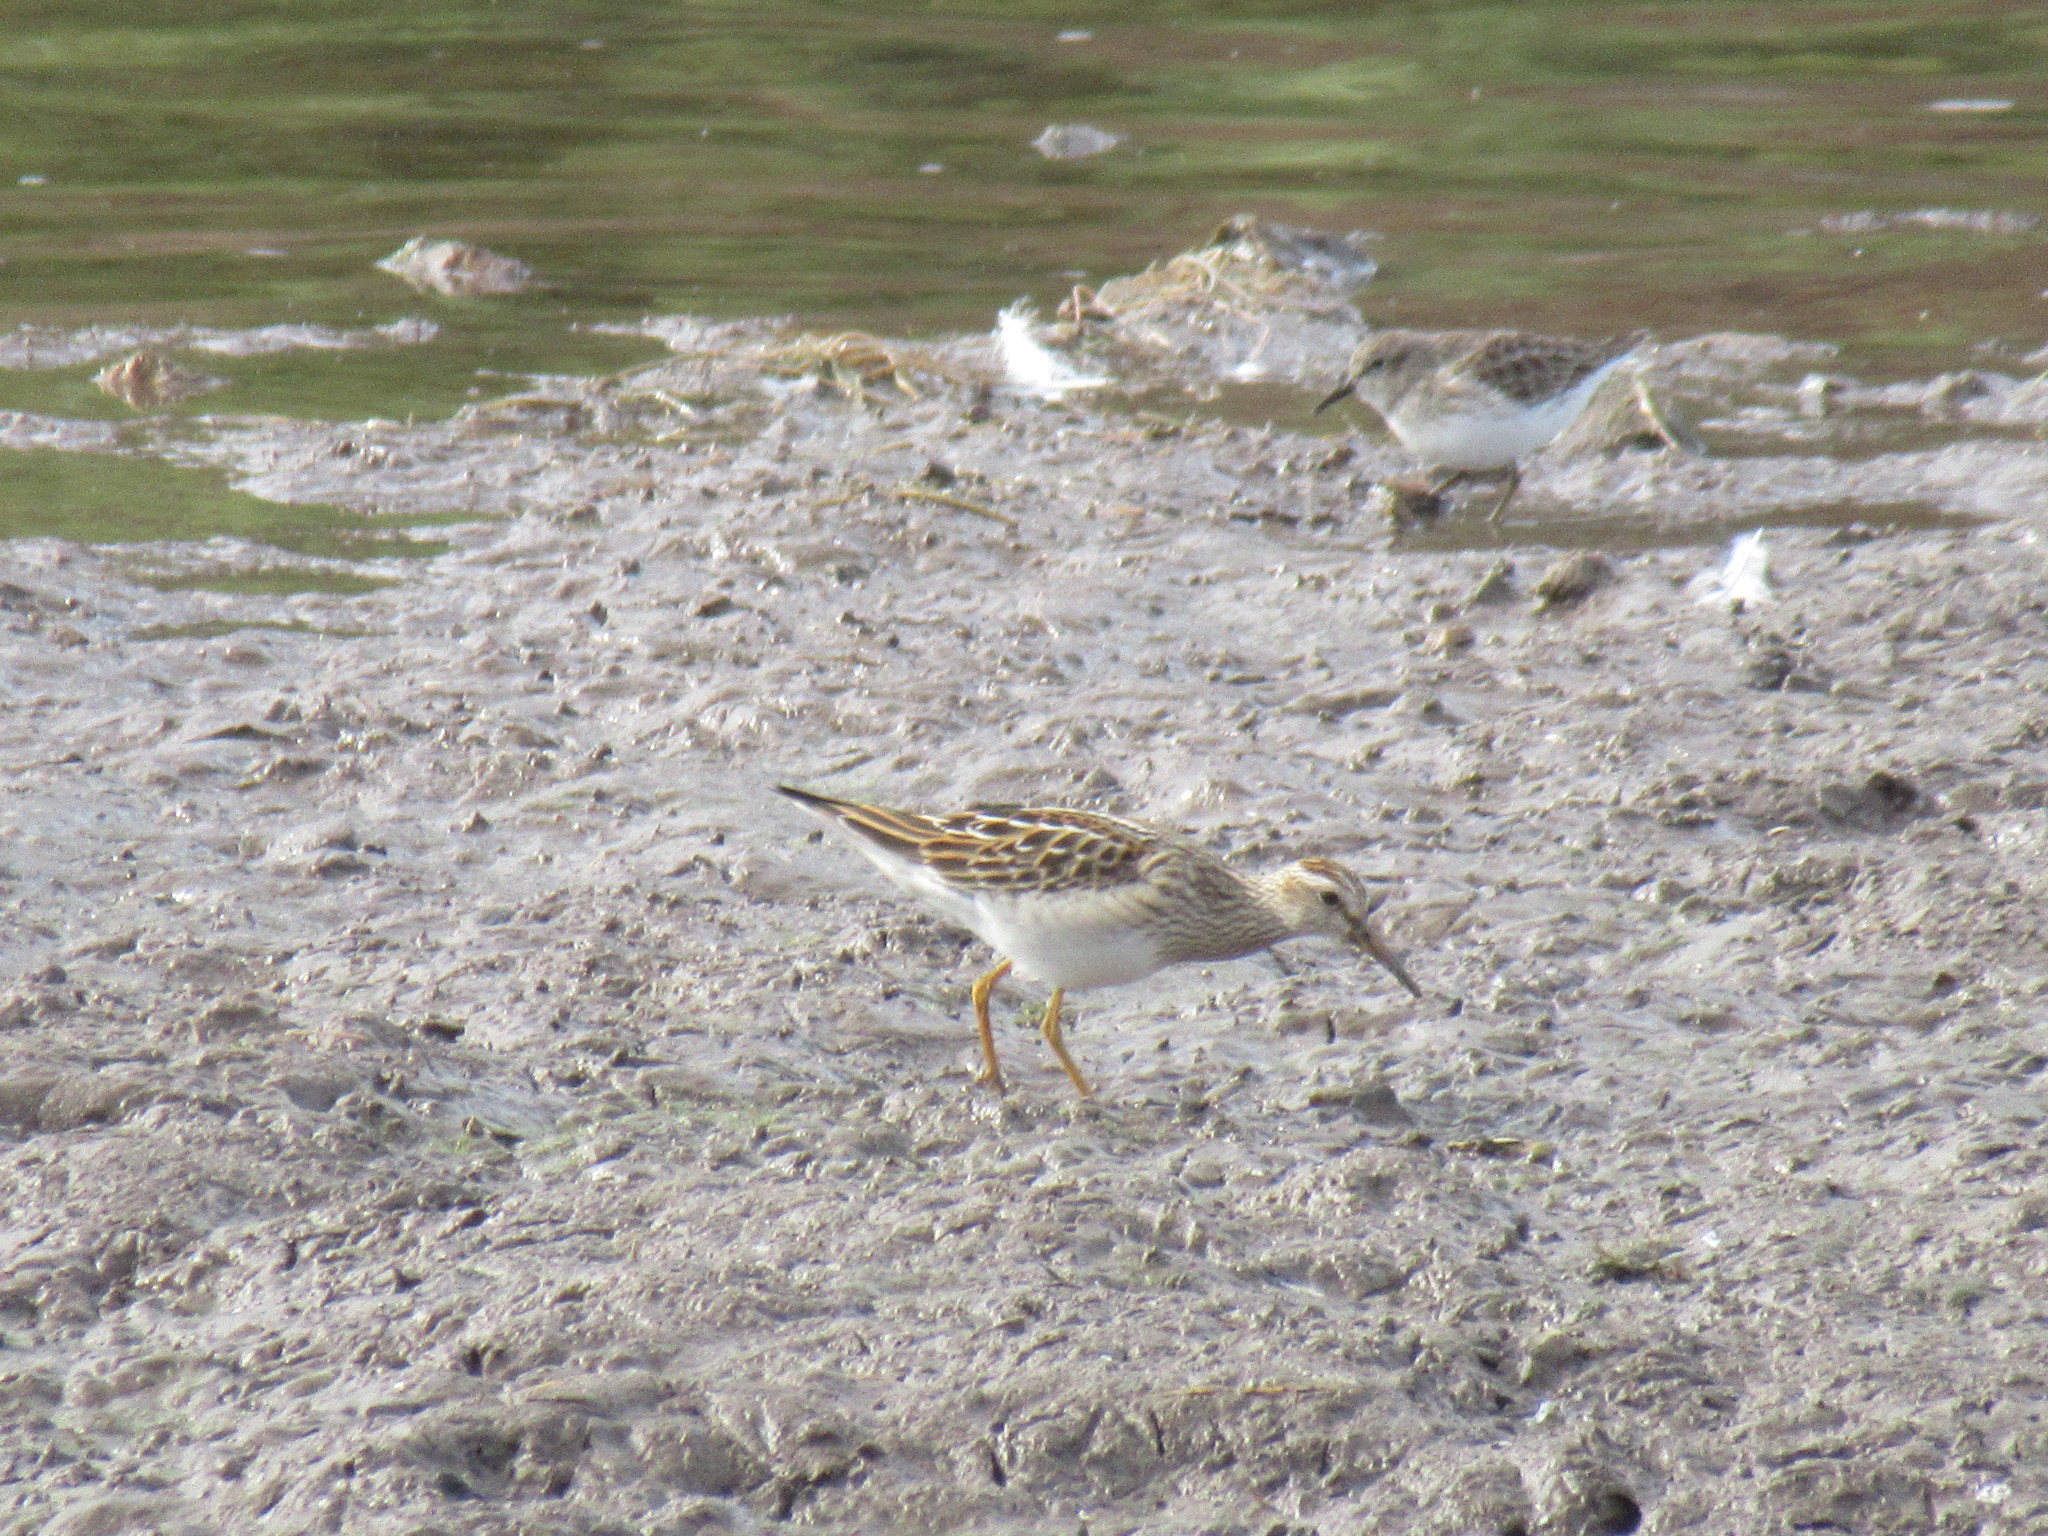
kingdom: Animalia
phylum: Chordata
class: Aves
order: Charadriiformes
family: Scolopacidae
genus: Calidris
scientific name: Calidris melanotos
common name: Pectoral sandpiper
